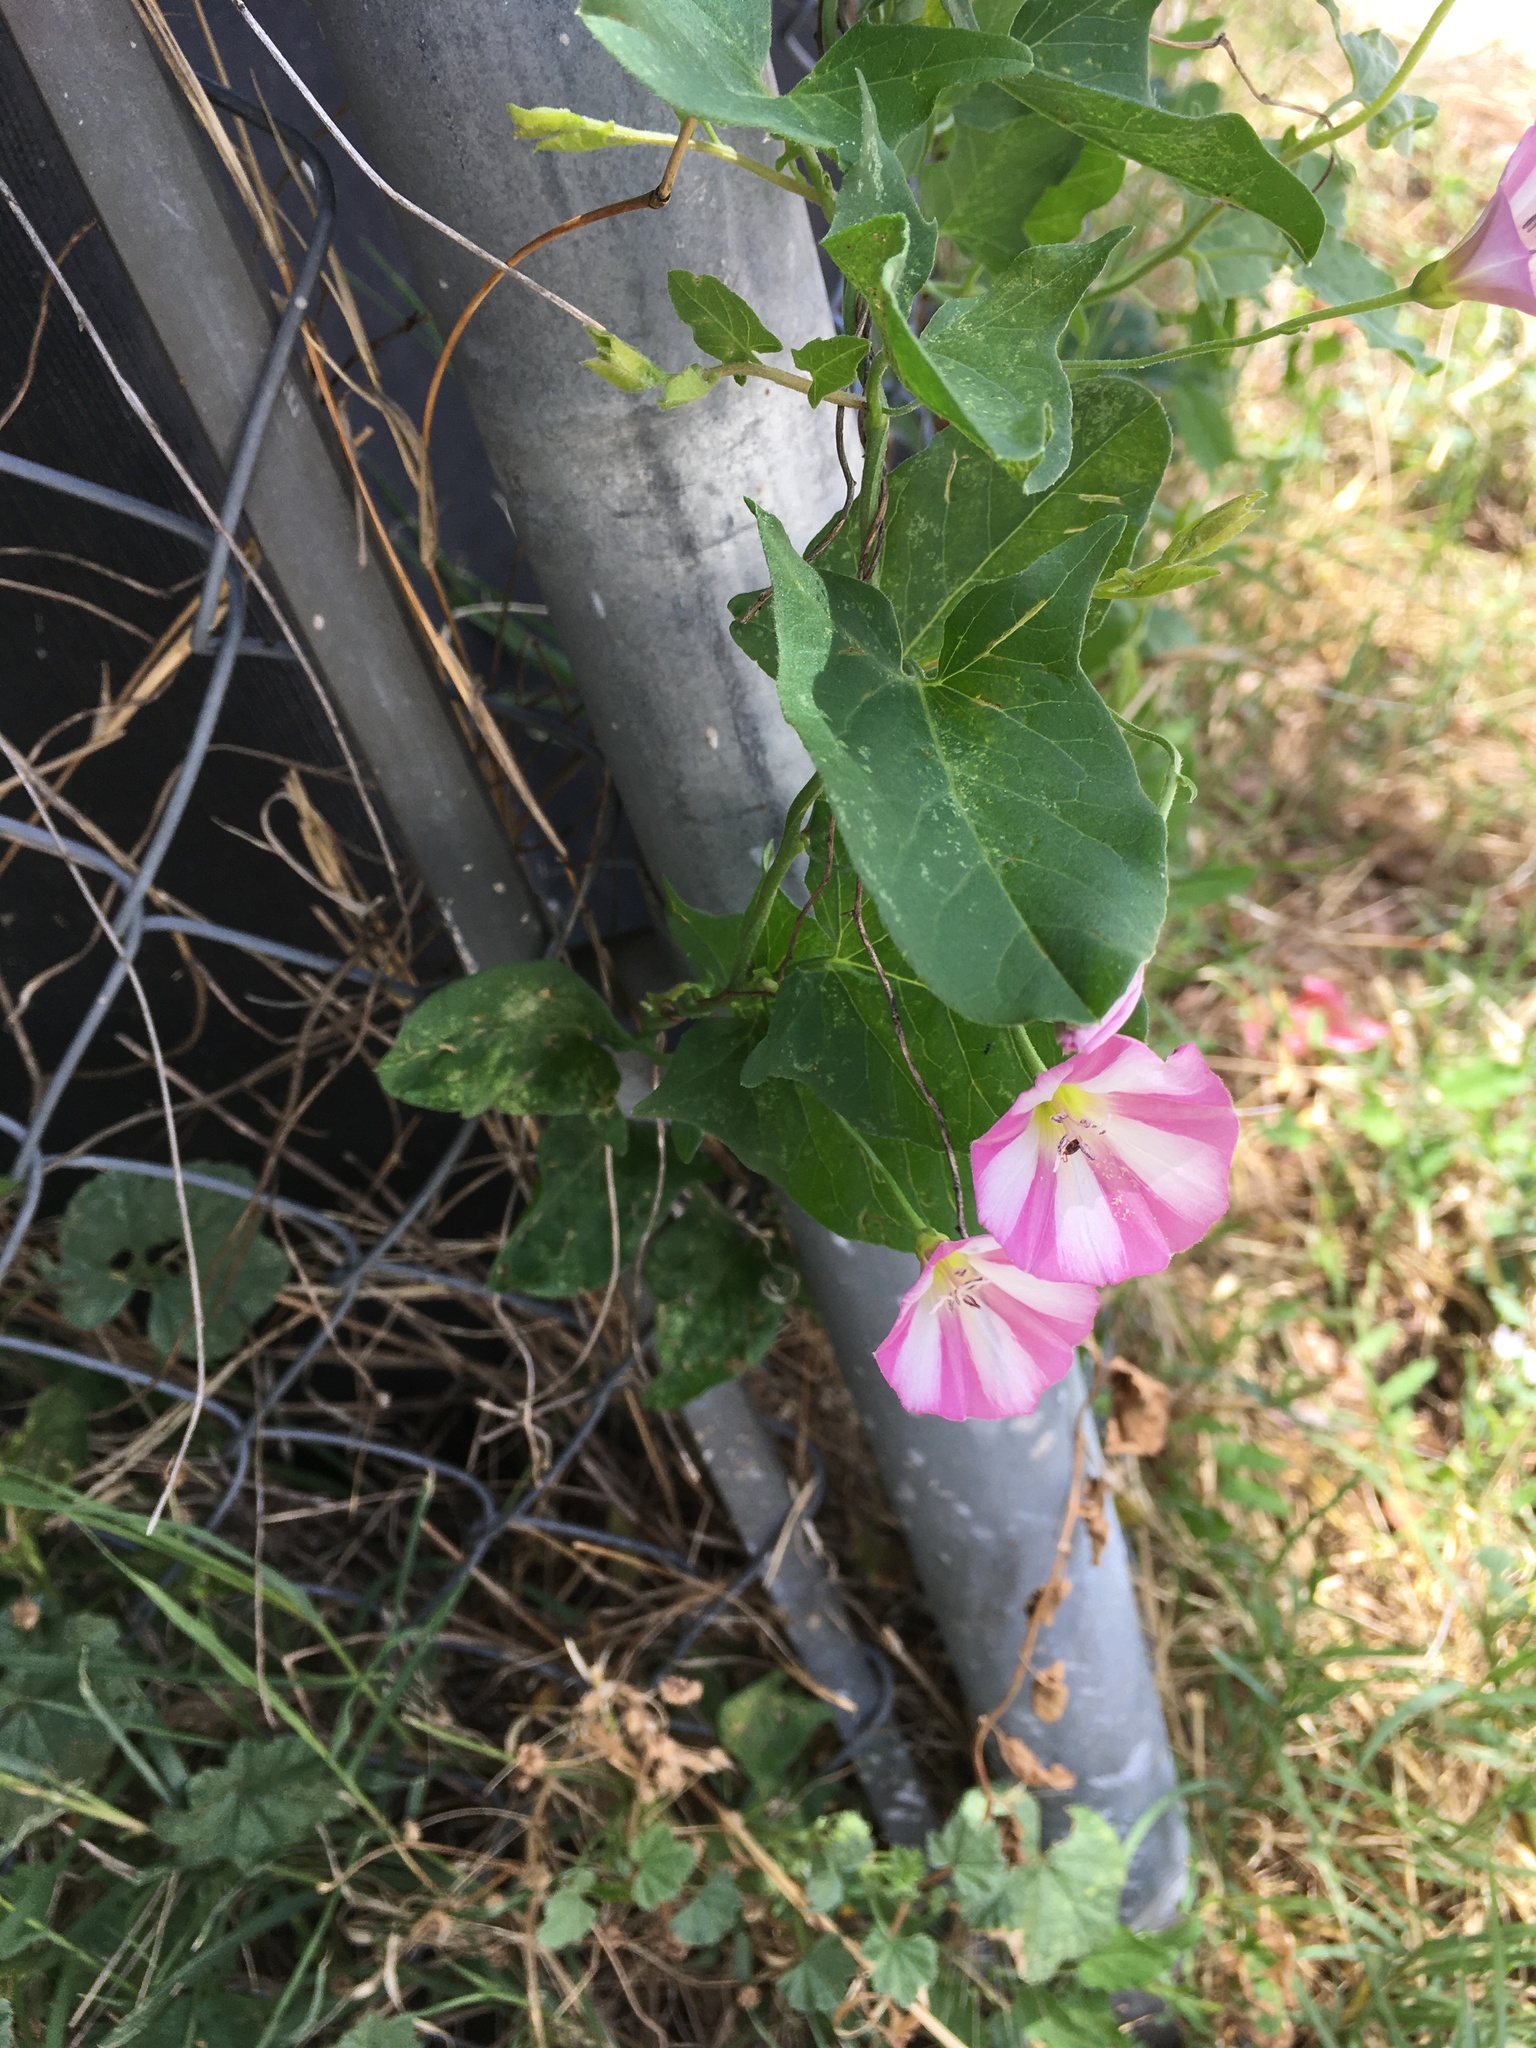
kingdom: Plantae
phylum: Tracheophyta
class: Magnoliopsida
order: Solanales
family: Convolvulaceae
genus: Convolvulus
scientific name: Convolvulus arvensis
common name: Field bindweed
